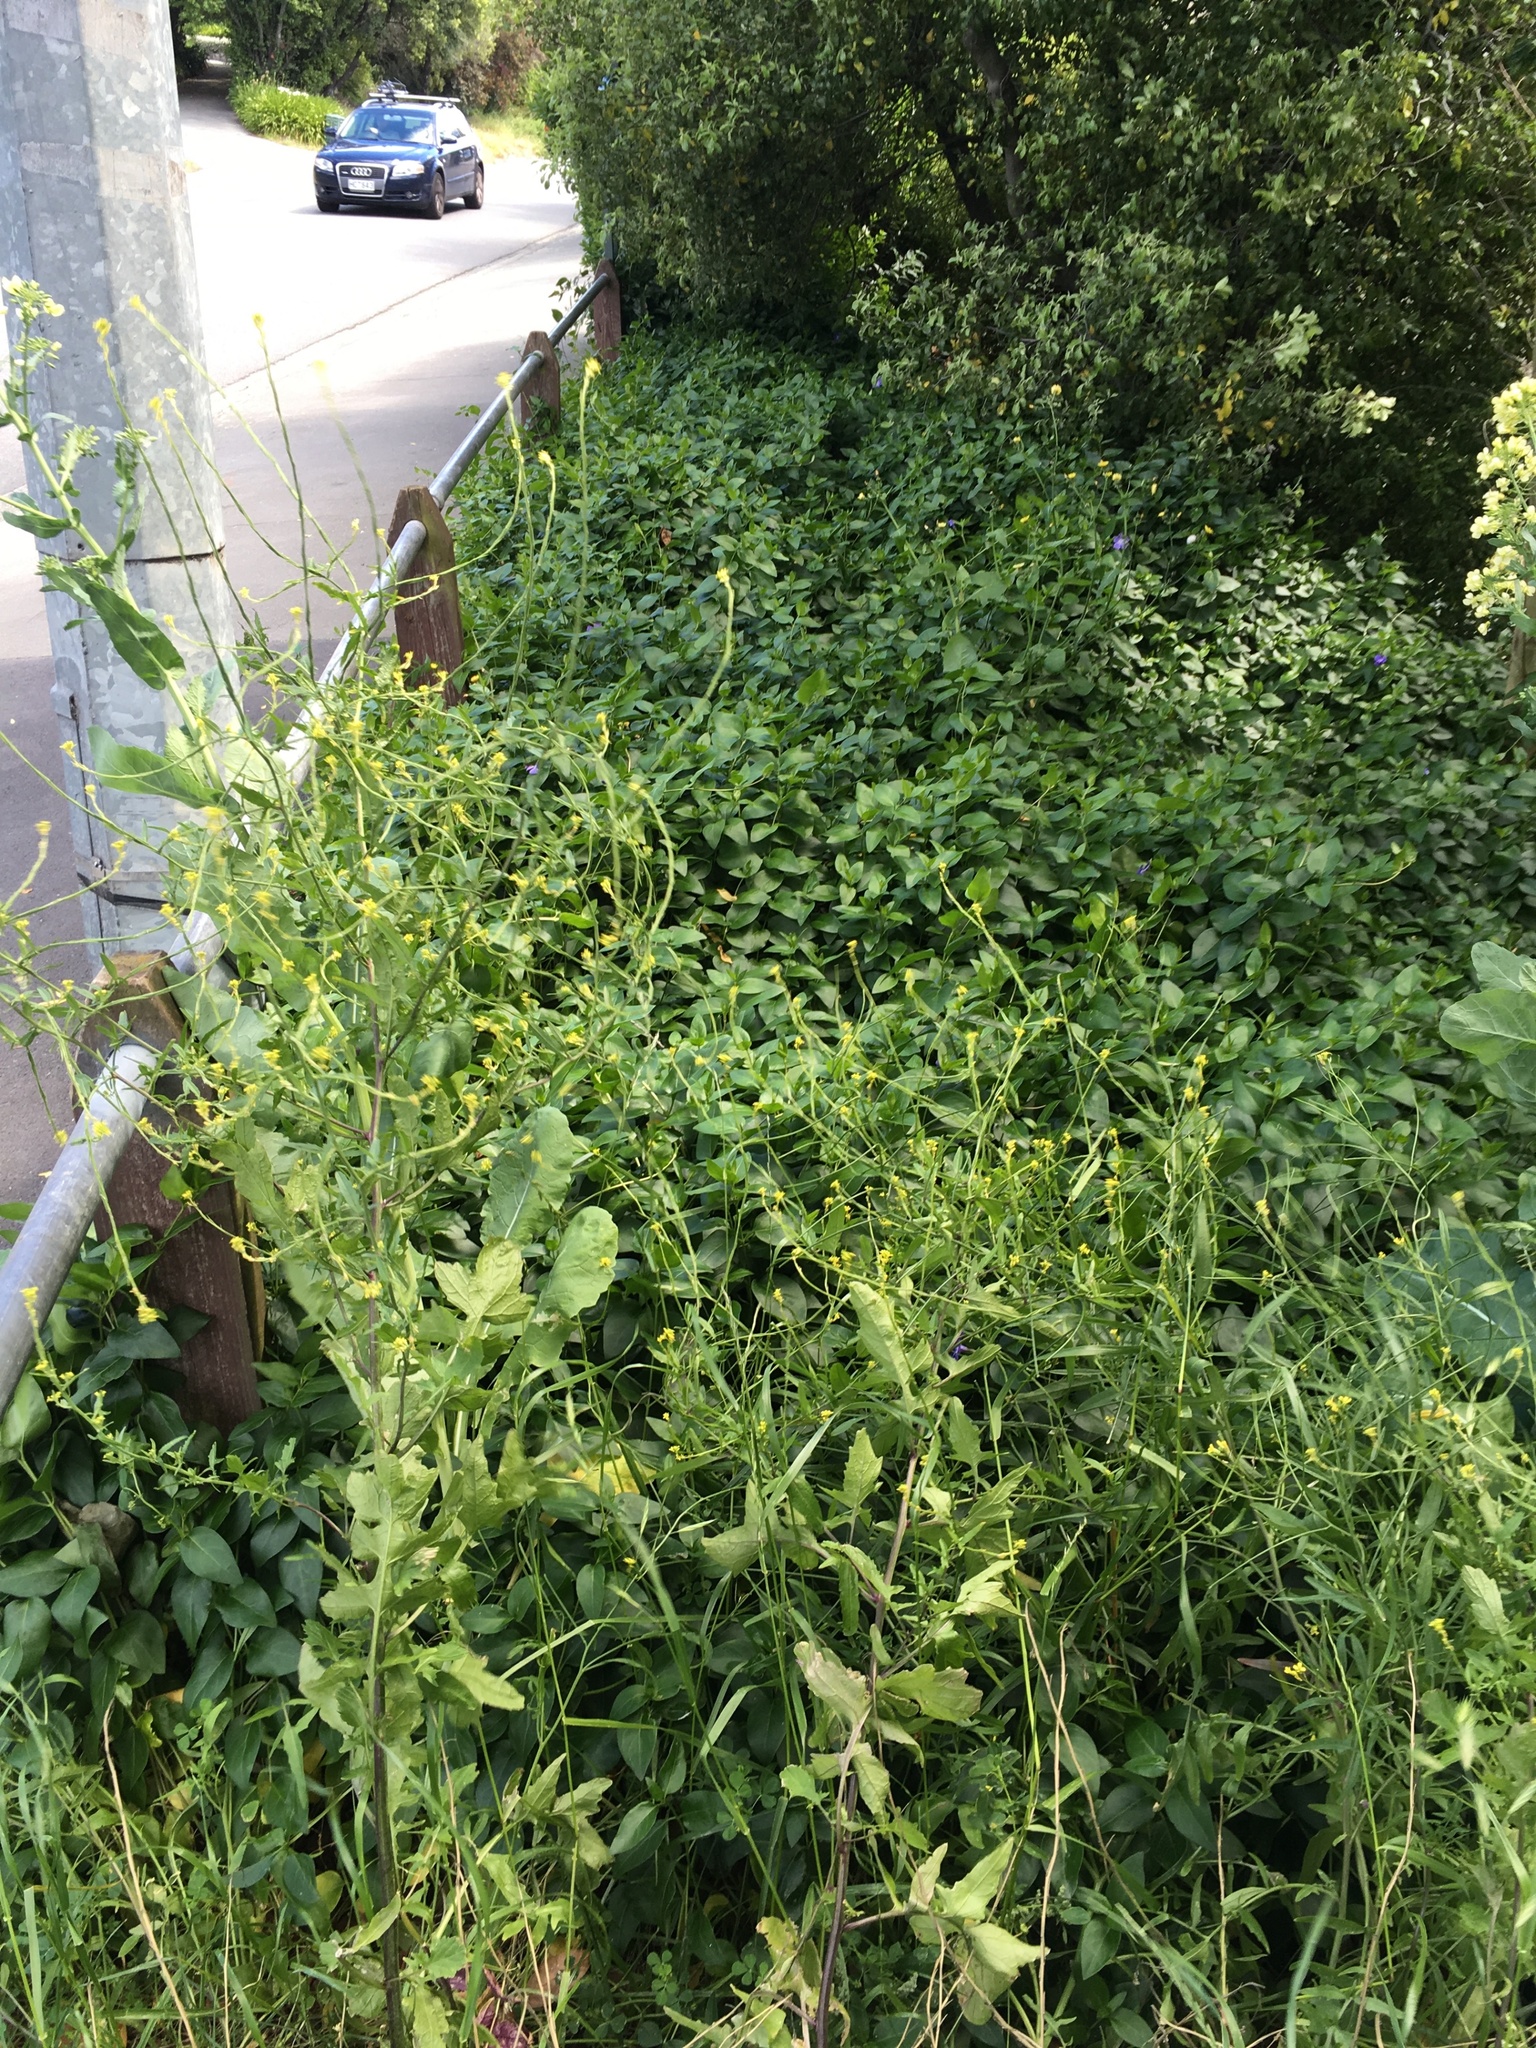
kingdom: Plantae
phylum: Tracheophyta
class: Magnoliopsida
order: Brassicales
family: Brassicaceae
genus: Sisymbrium
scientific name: Sisymbrium officinale
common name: Hedge mustard
